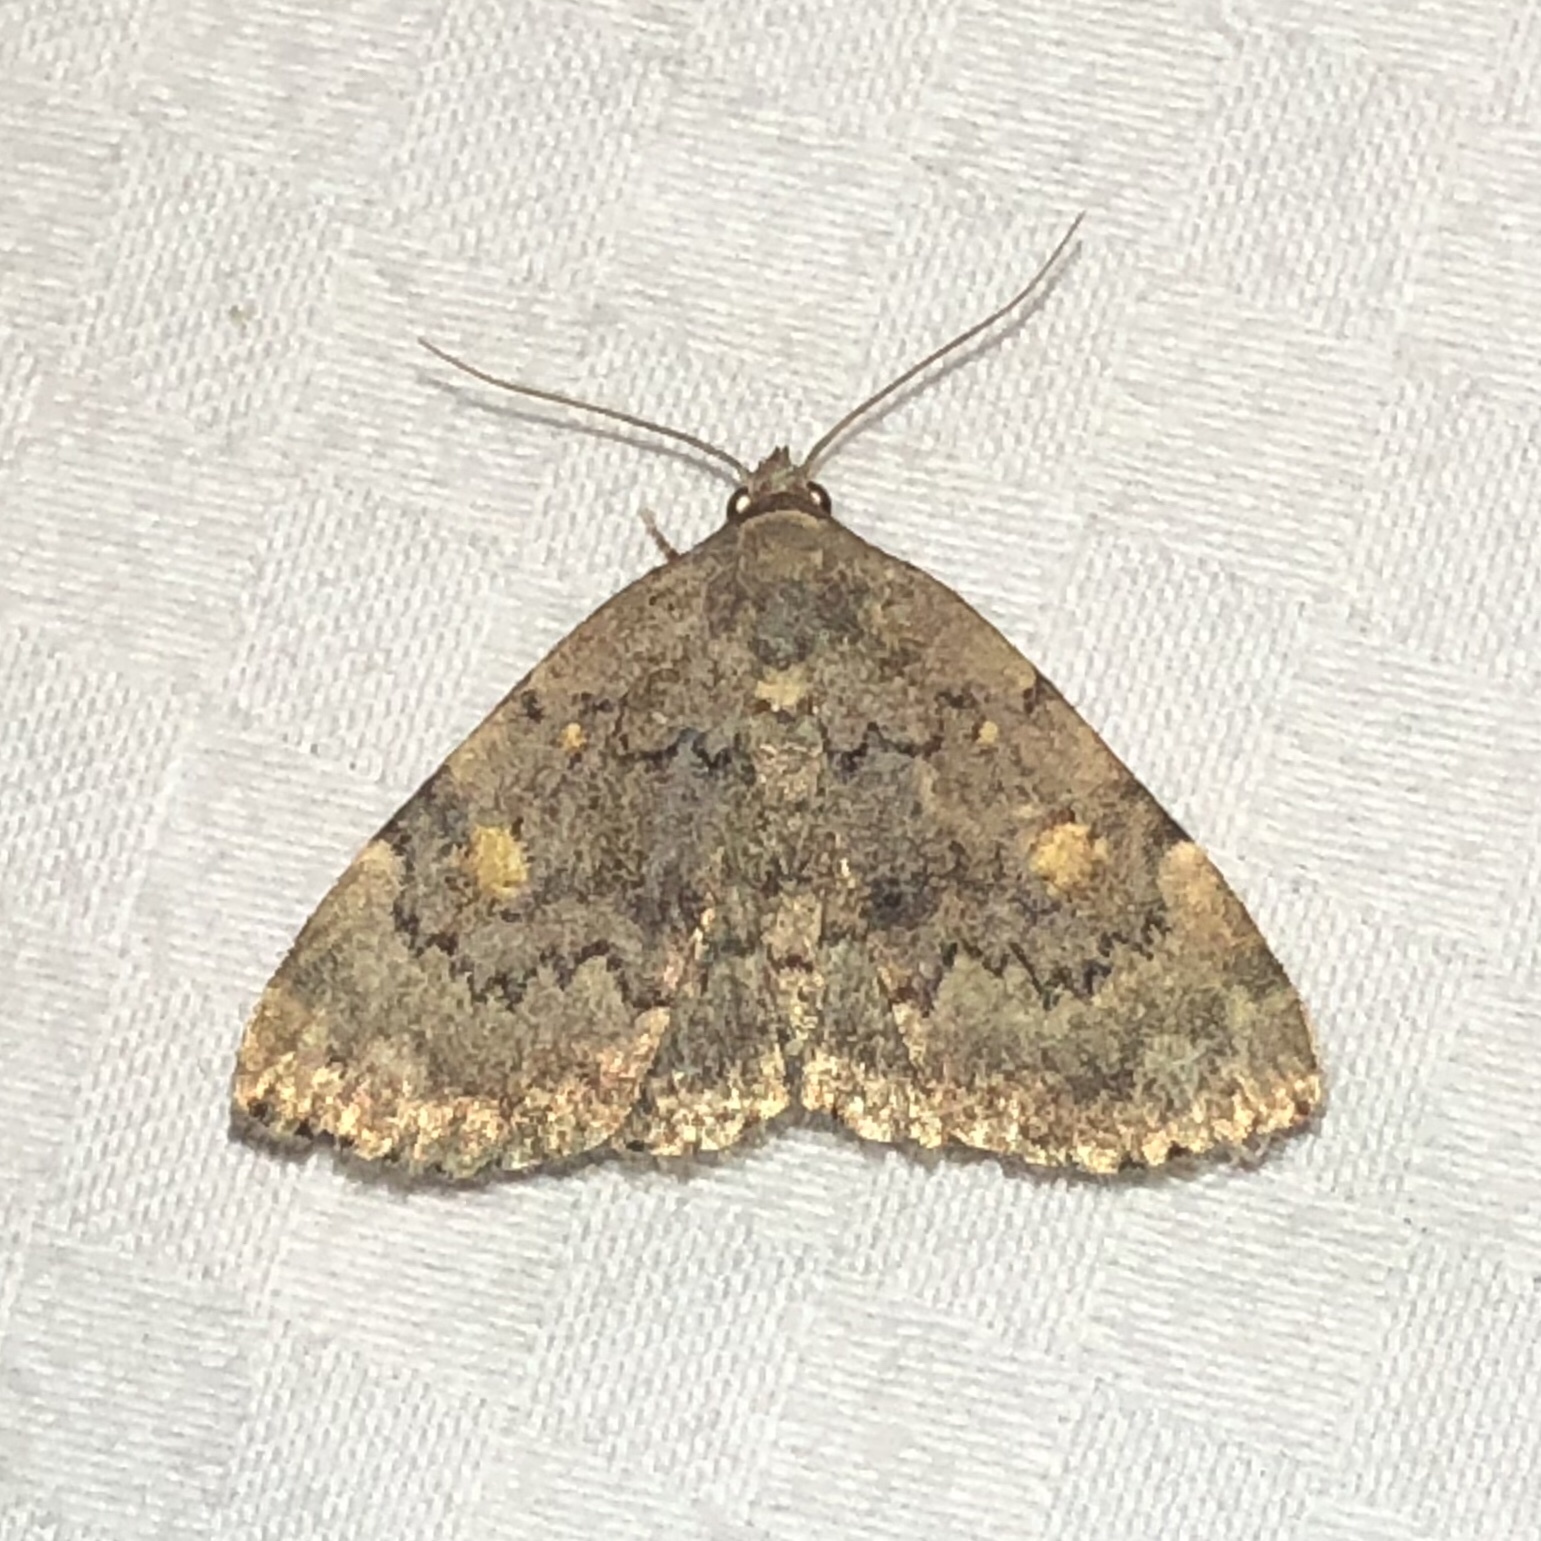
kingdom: Animalia
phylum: Arthropoda
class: Insecta
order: Lepidoptera
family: Erebidae
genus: Idia
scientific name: Idia aemula
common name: Common idia moth
